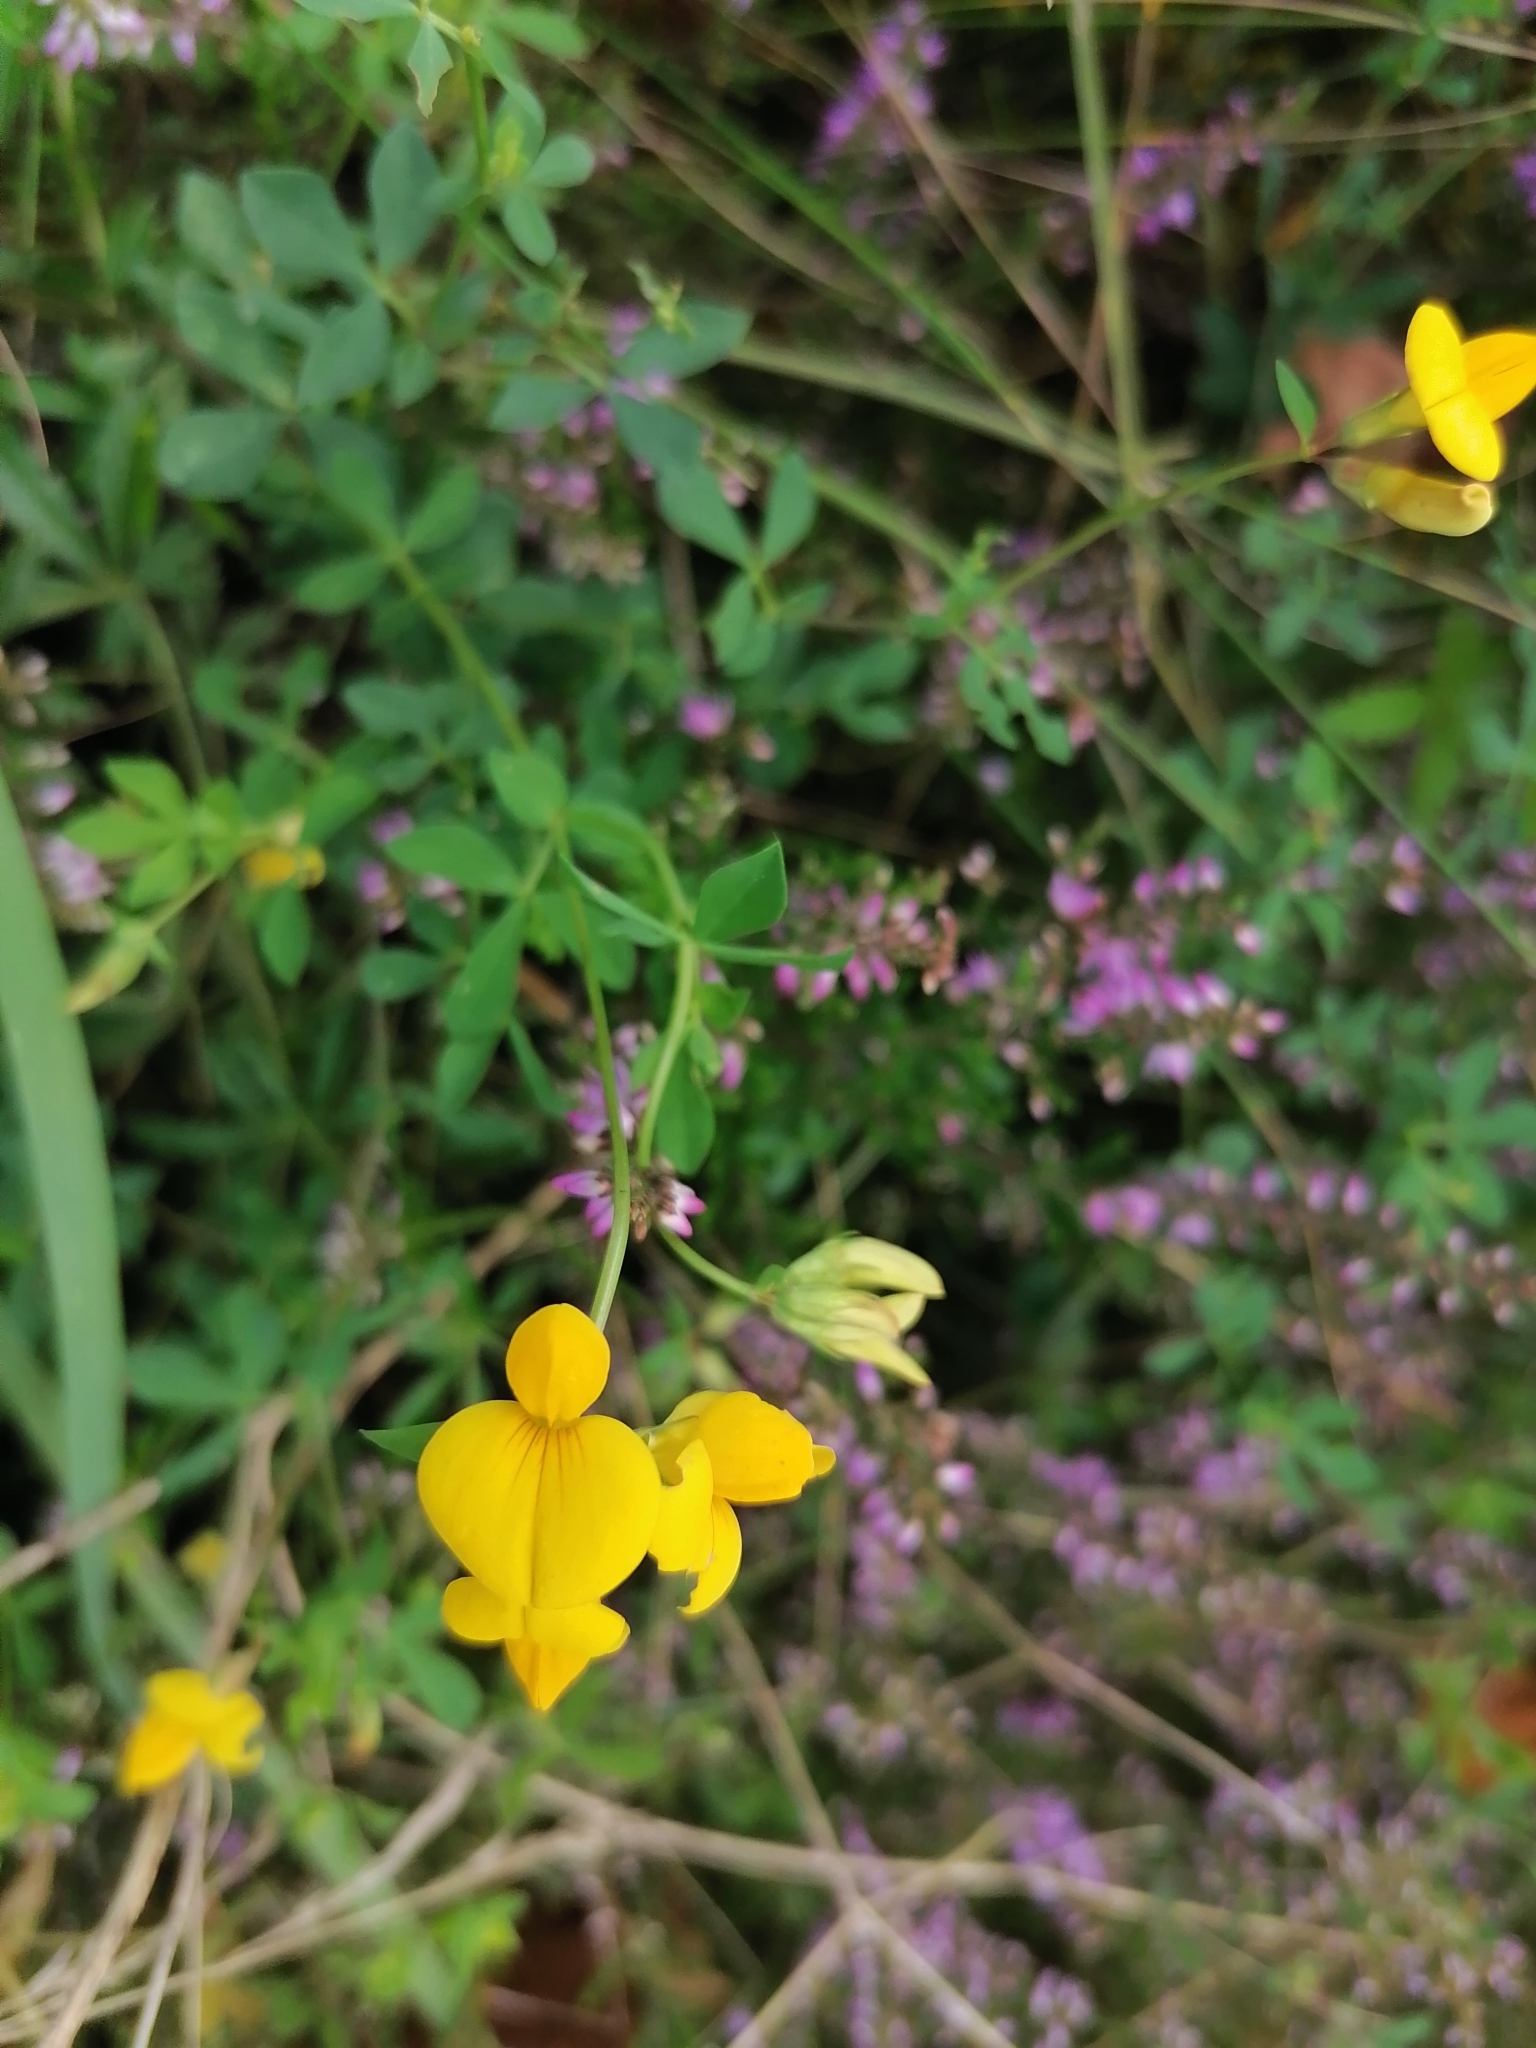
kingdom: Plantae
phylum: Tracheophyta
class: Magnoliopsida
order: Fabales
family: Fabaceae
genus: Lotus
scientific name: Lotus corniculatus
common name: Common bird's-foot-trefoil
